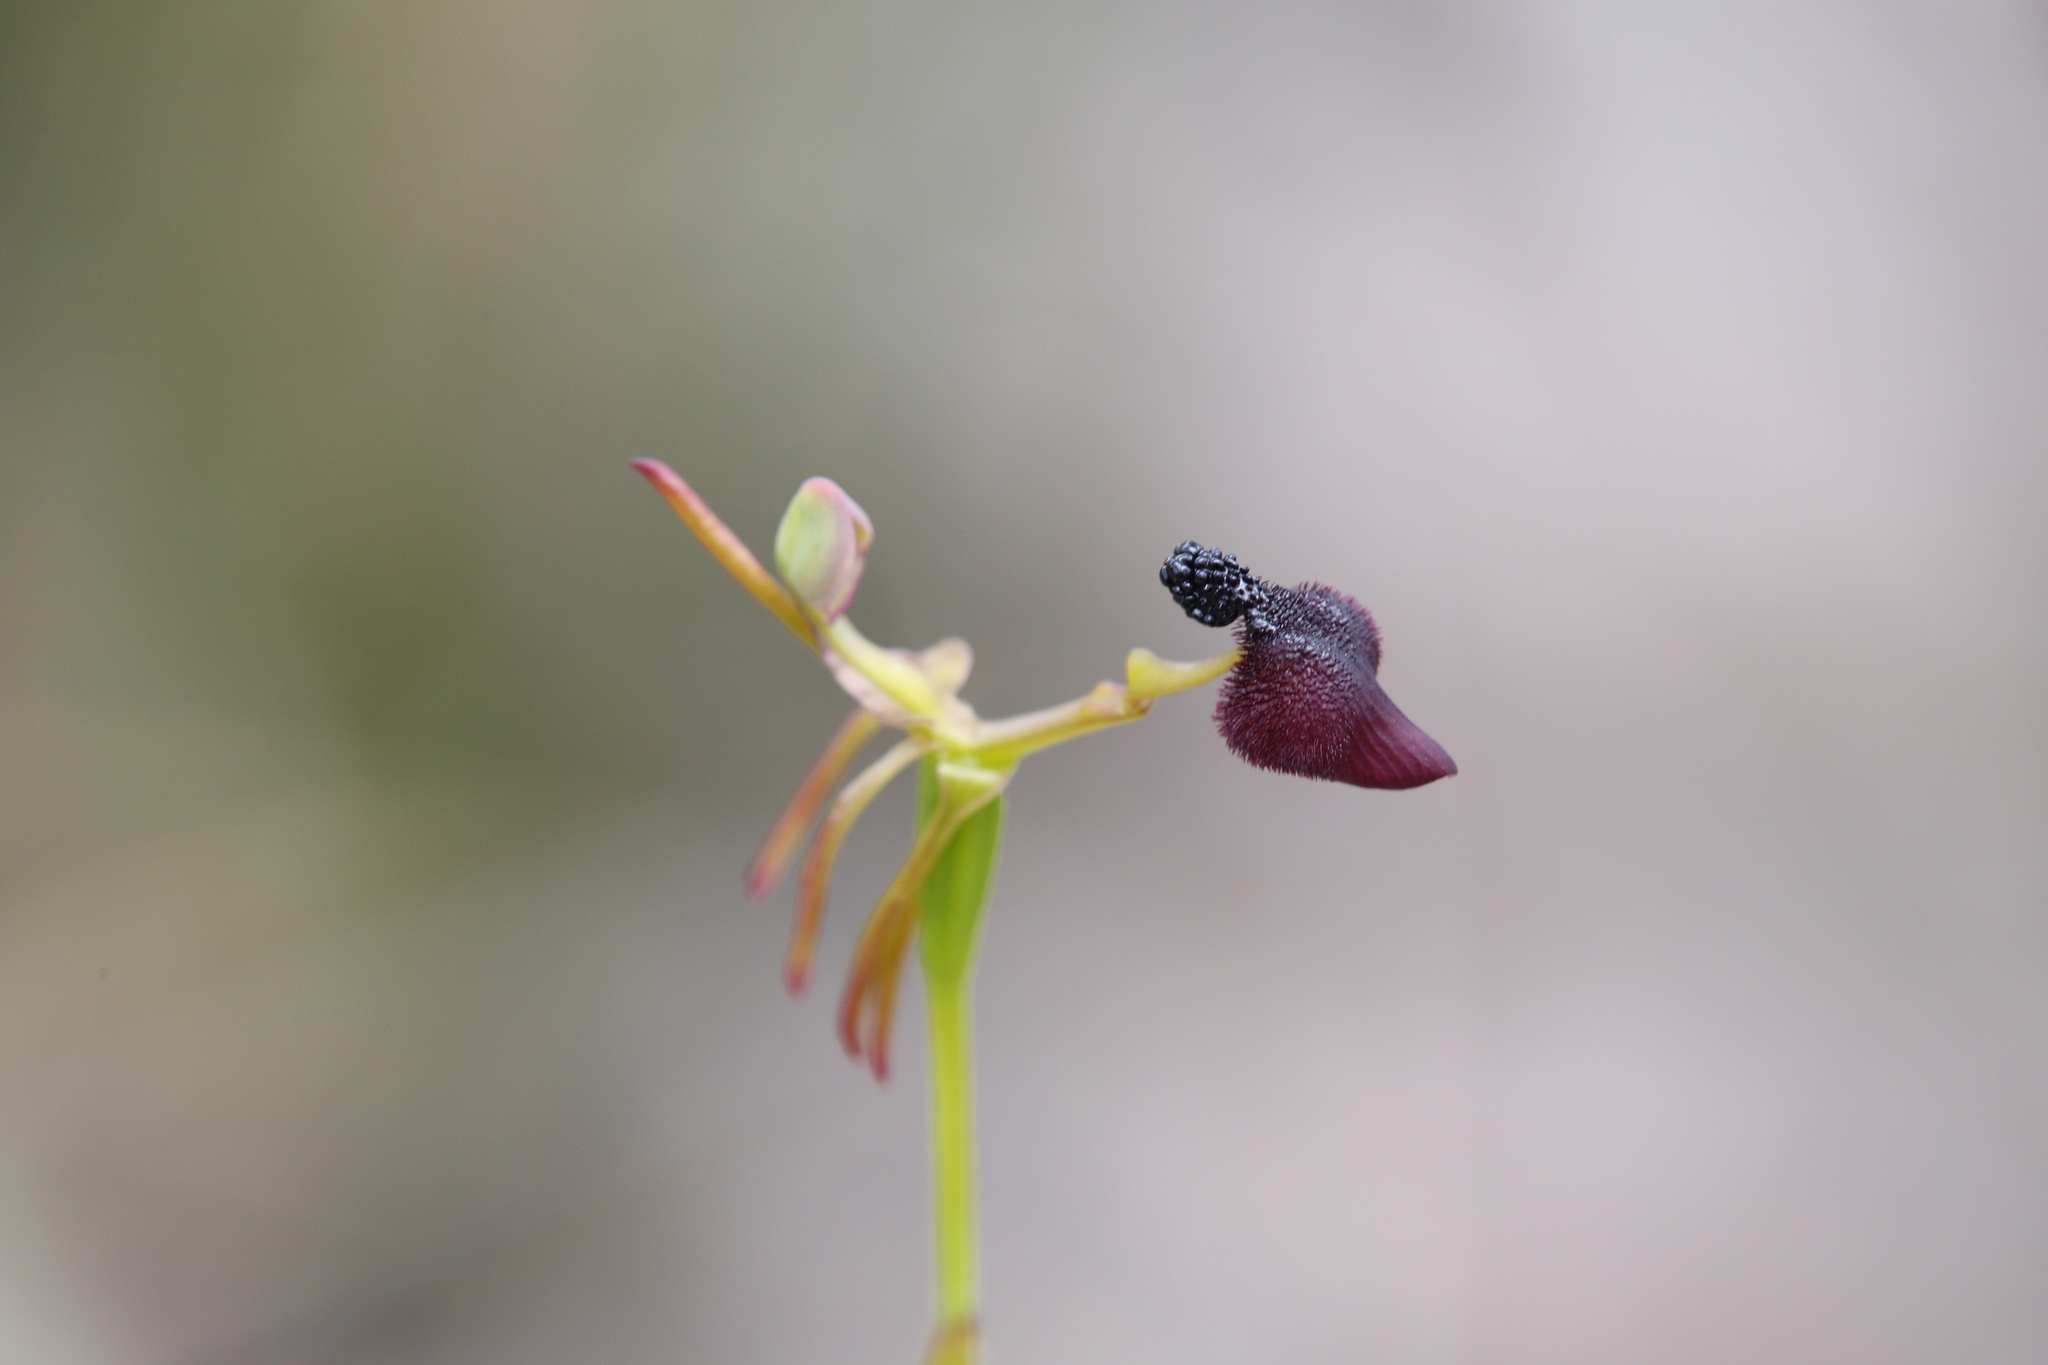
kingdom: Plantae
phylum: Tracheophyta
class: Liliopsida
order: Asparagales
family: Orchidaceae
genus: Drakaea
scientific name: Drakaea glyptodon
